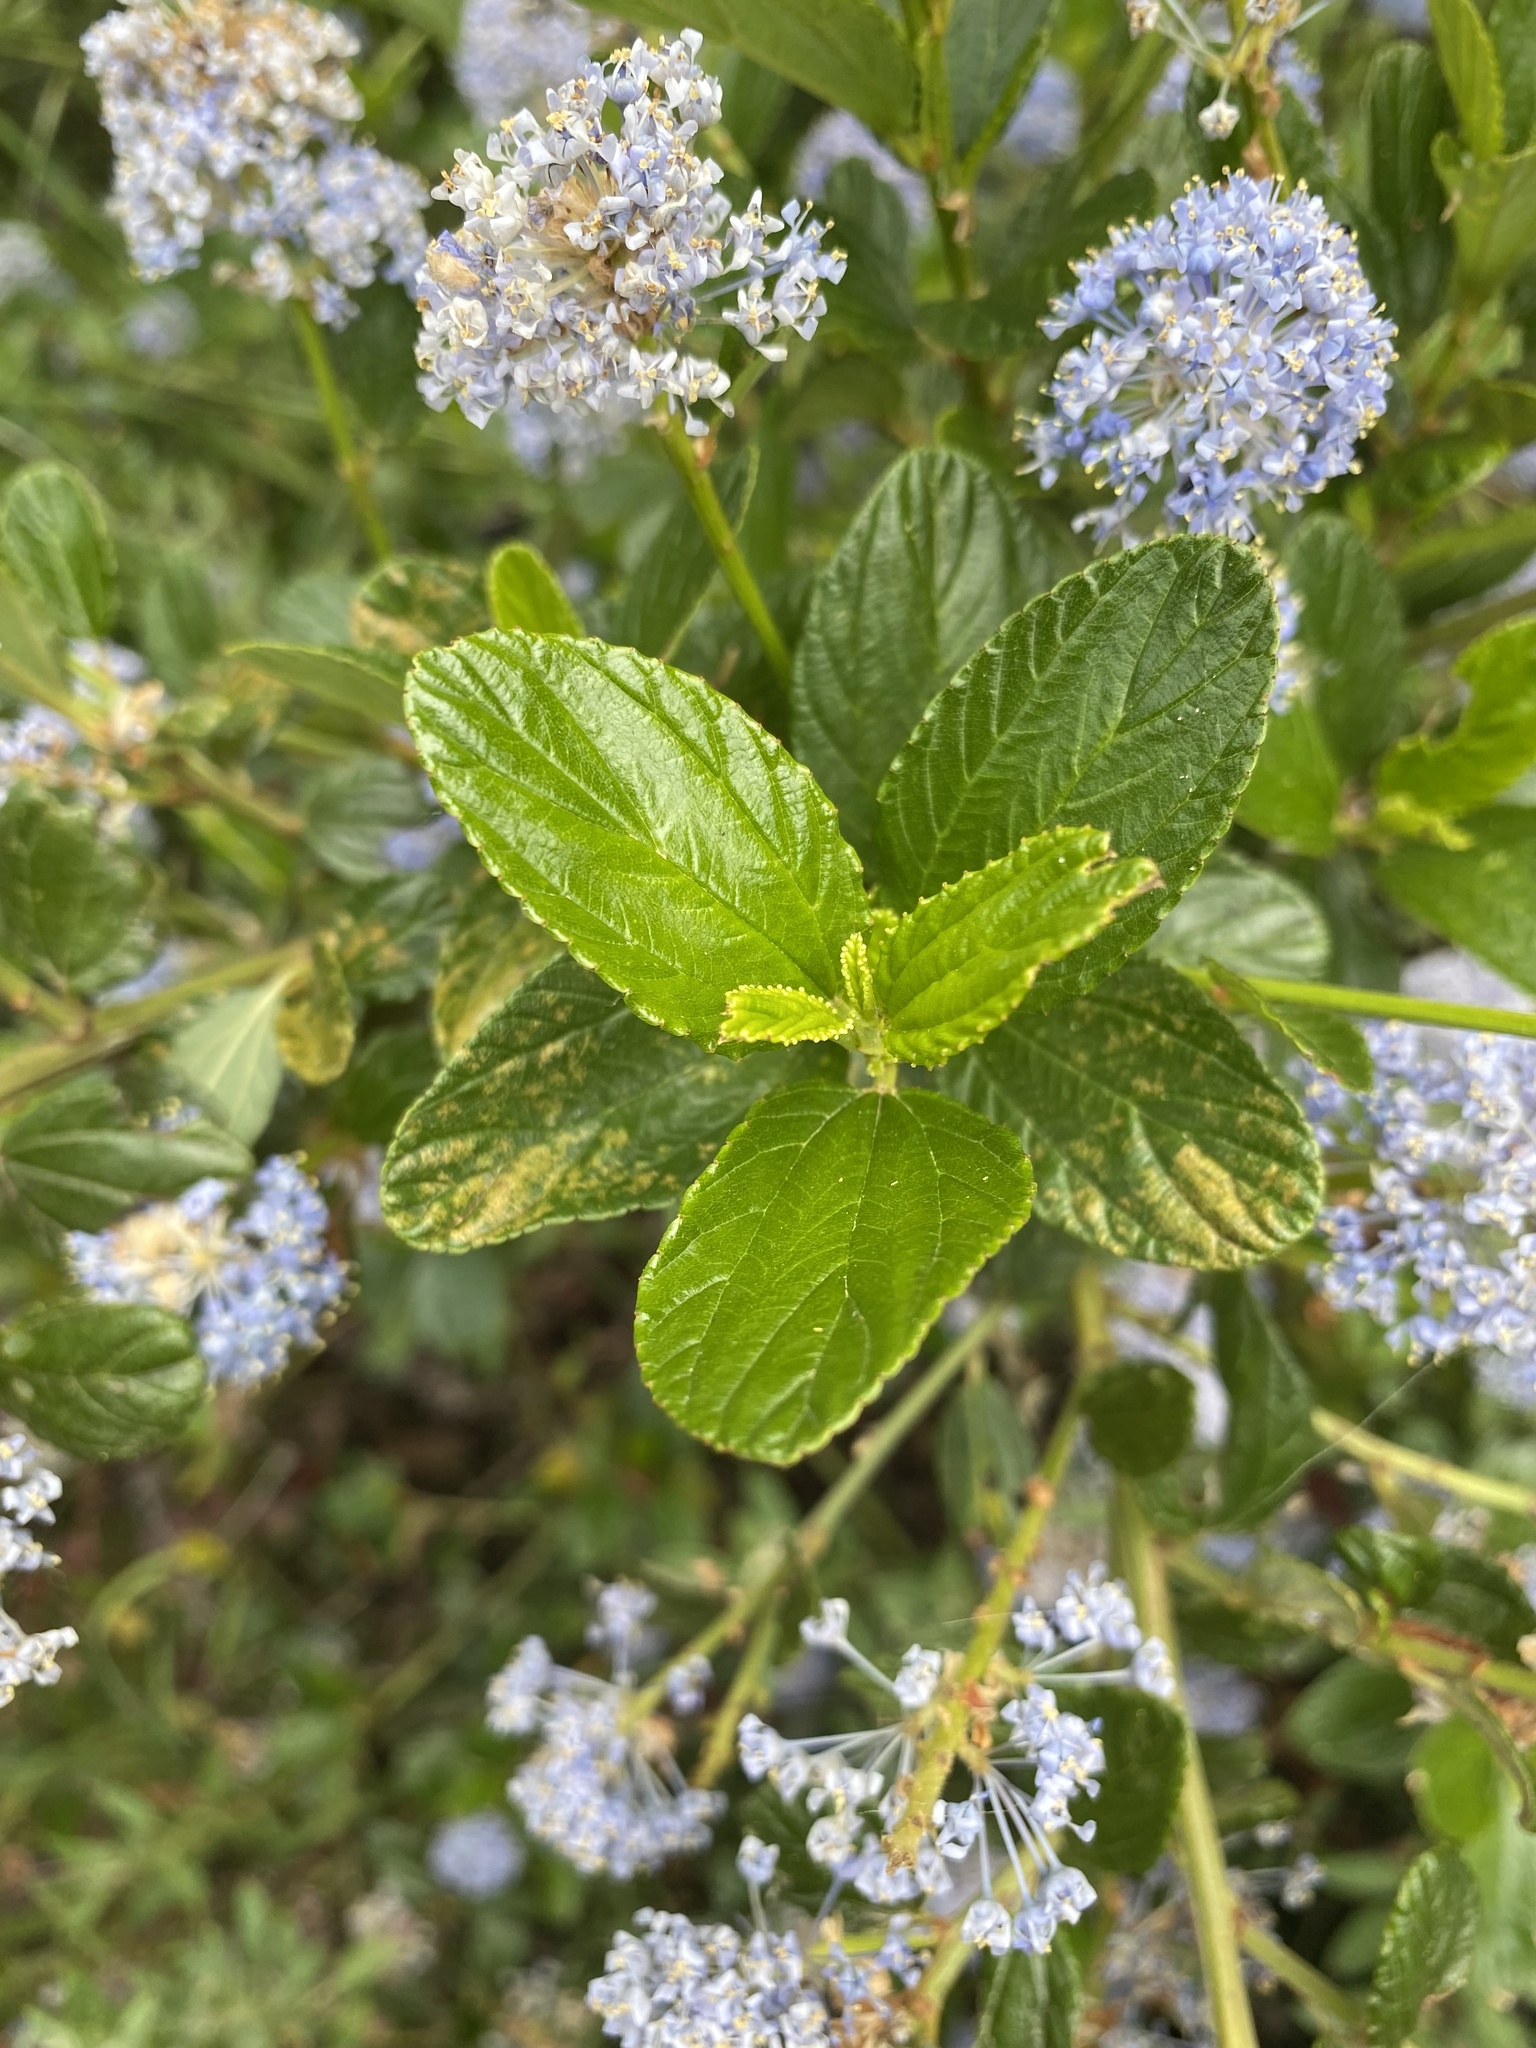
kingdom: Plantae
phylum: Tracheophyta
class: Magnoliopsida
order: Rosales
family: Rhamnaceae
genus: Ceanothus
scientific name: Ceanothus thyrsiflorus
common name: California-lilac
